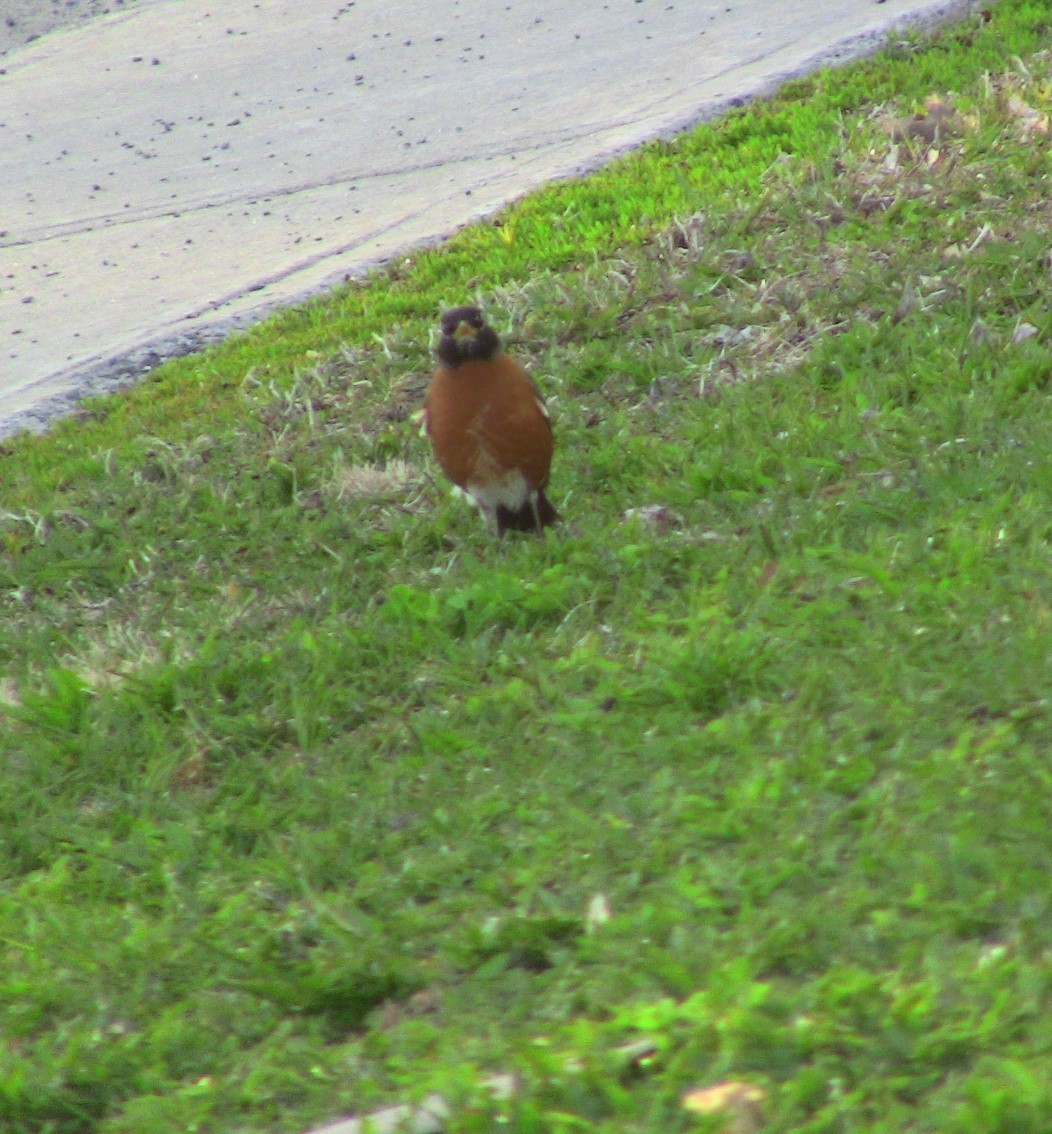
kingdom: Animalia
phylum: Chordata
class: Aves
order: Passeriformes
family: Turdidae
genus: Turdus
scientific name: Turdus migratorius
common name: American robin
